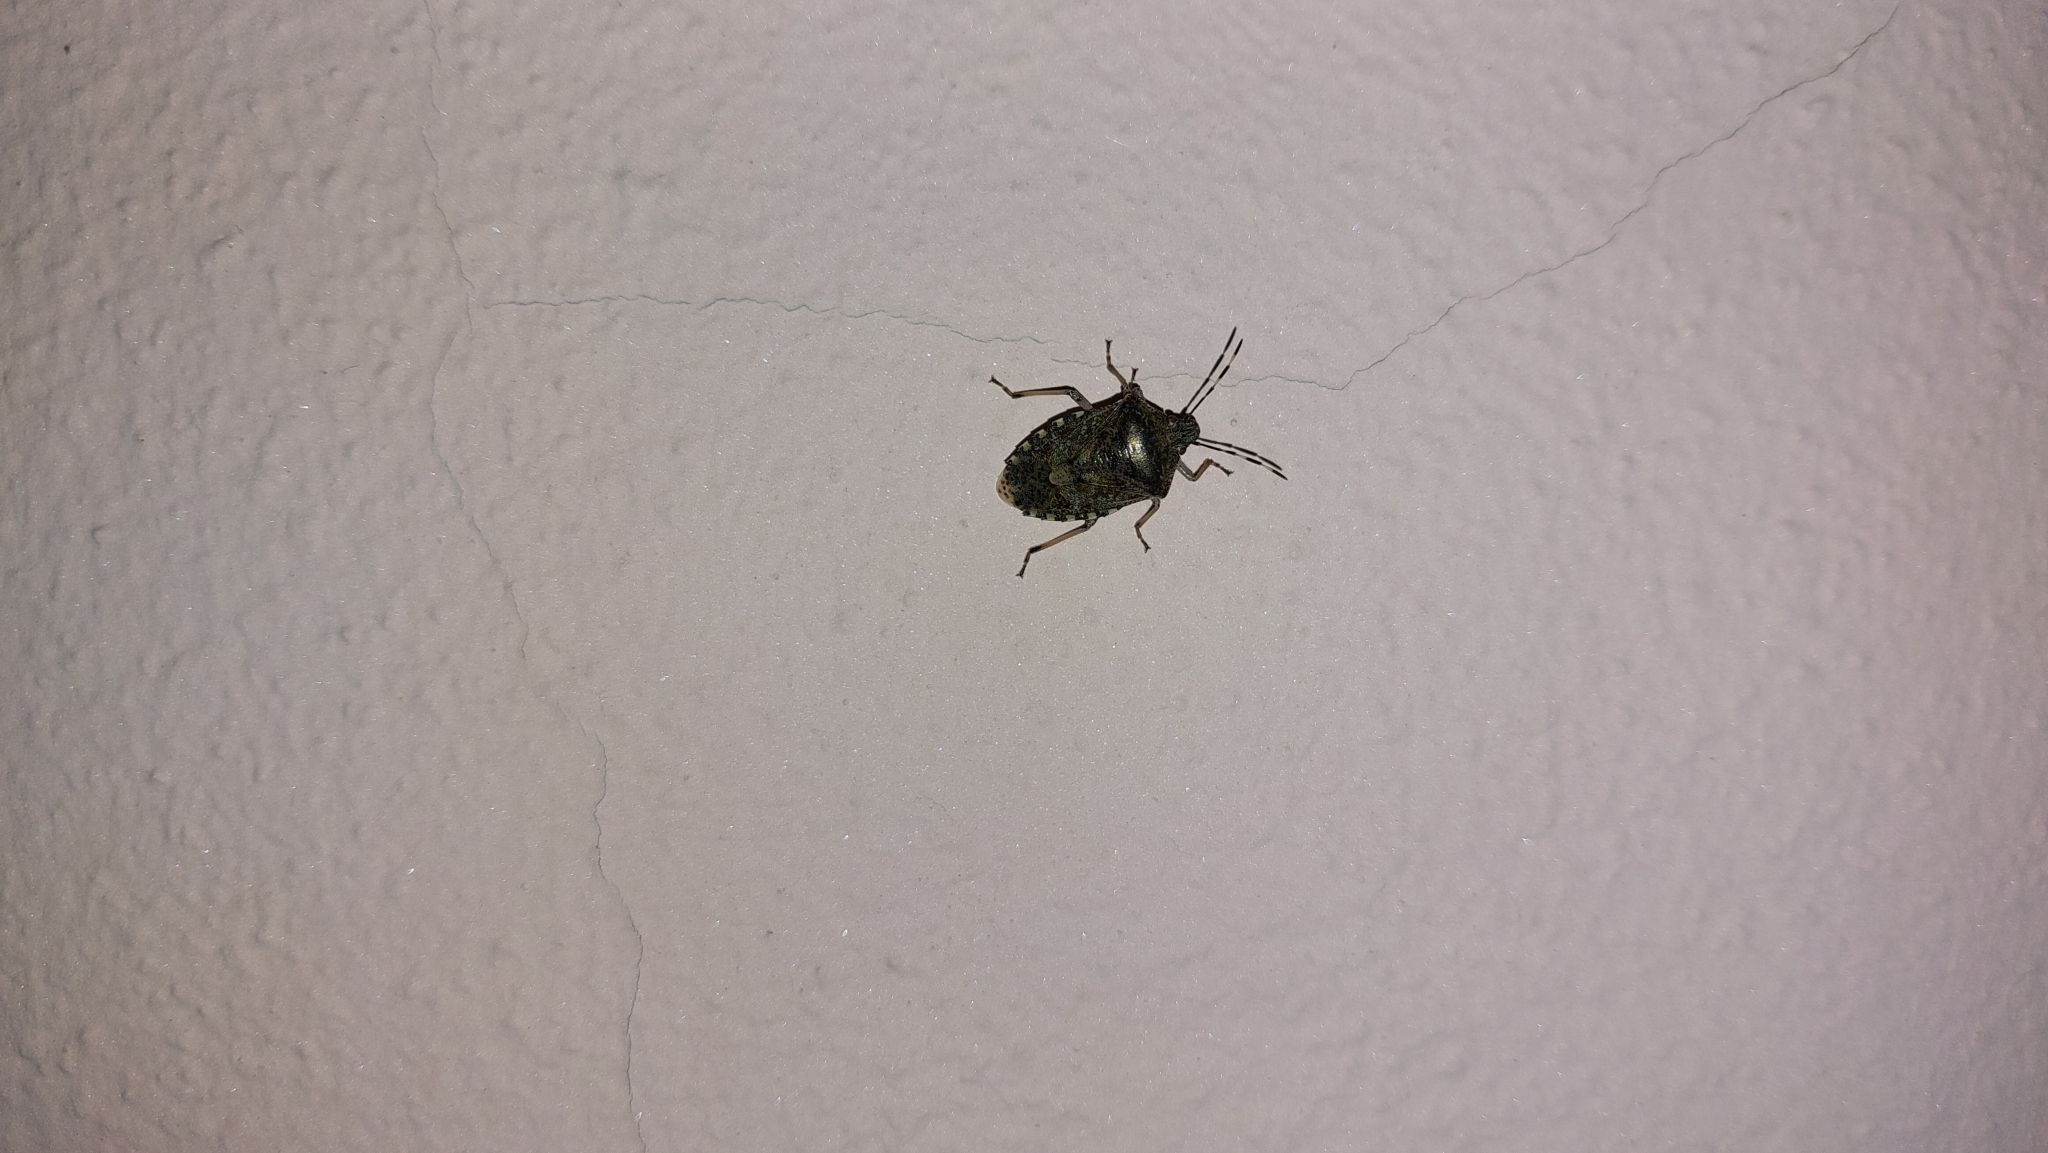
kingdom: Animalia
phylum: Arthropoda
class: Insecta
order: Hemiptera
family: Pentatomidae
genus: Rhaphigaster
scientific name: Rhaphigaster nebulosa
